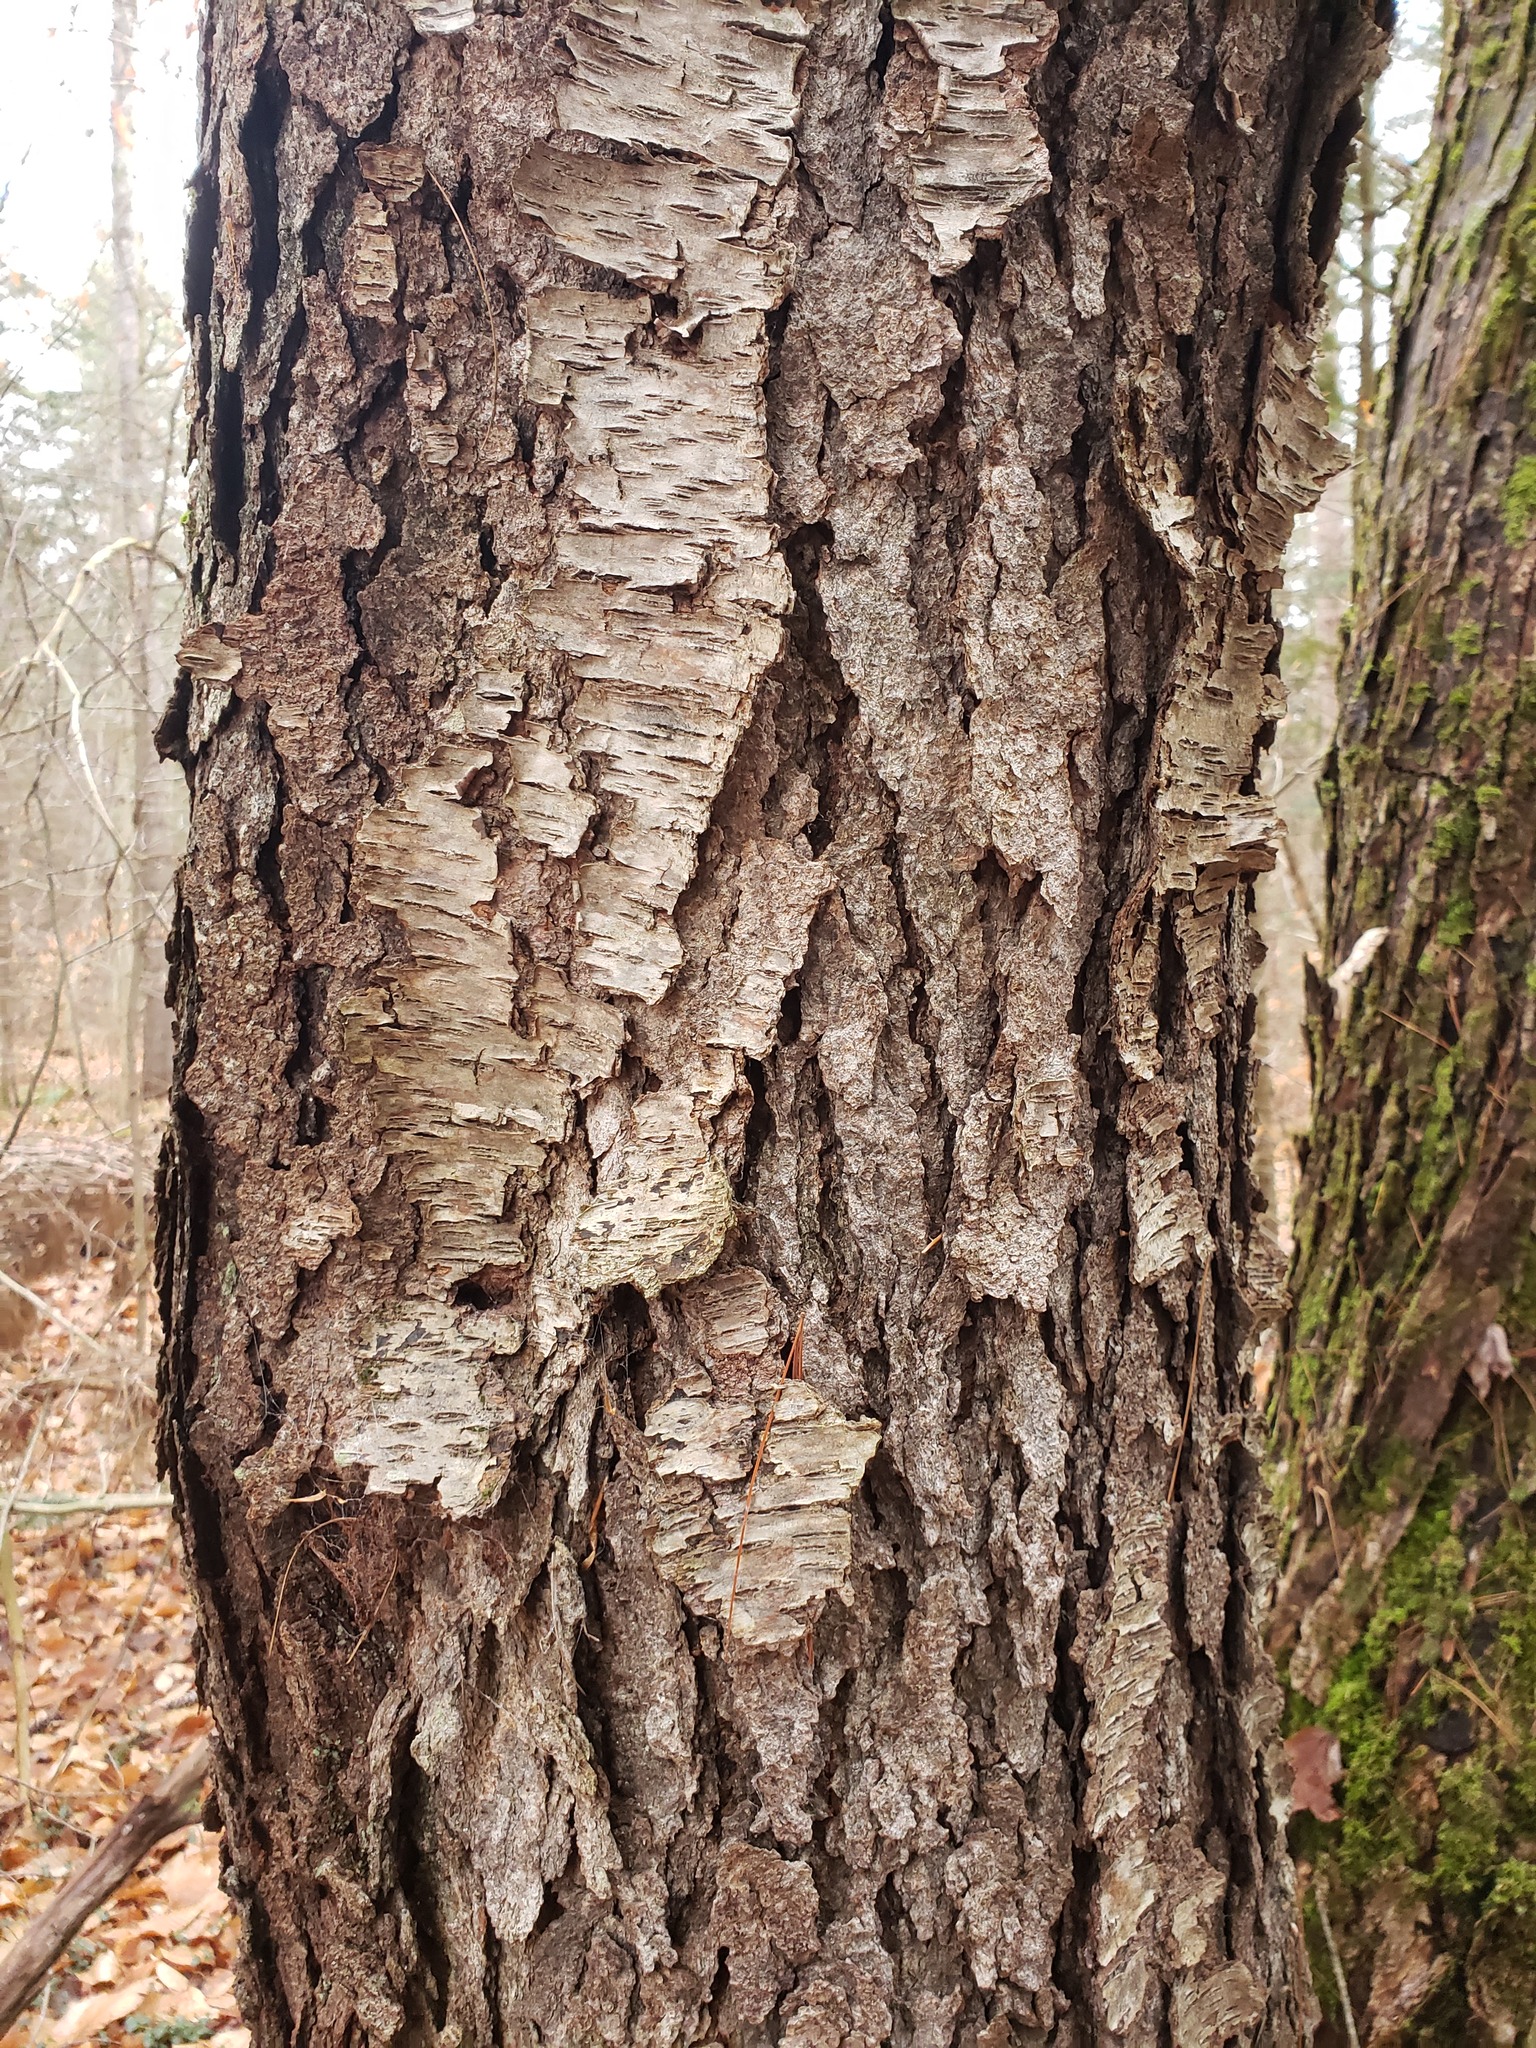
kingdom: Plantae
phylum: Tracheophyta
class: Magnoliopsida
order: Rosales
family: Rosaceae
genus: Prunus
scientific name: Prunus serotina
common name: Black cherry
